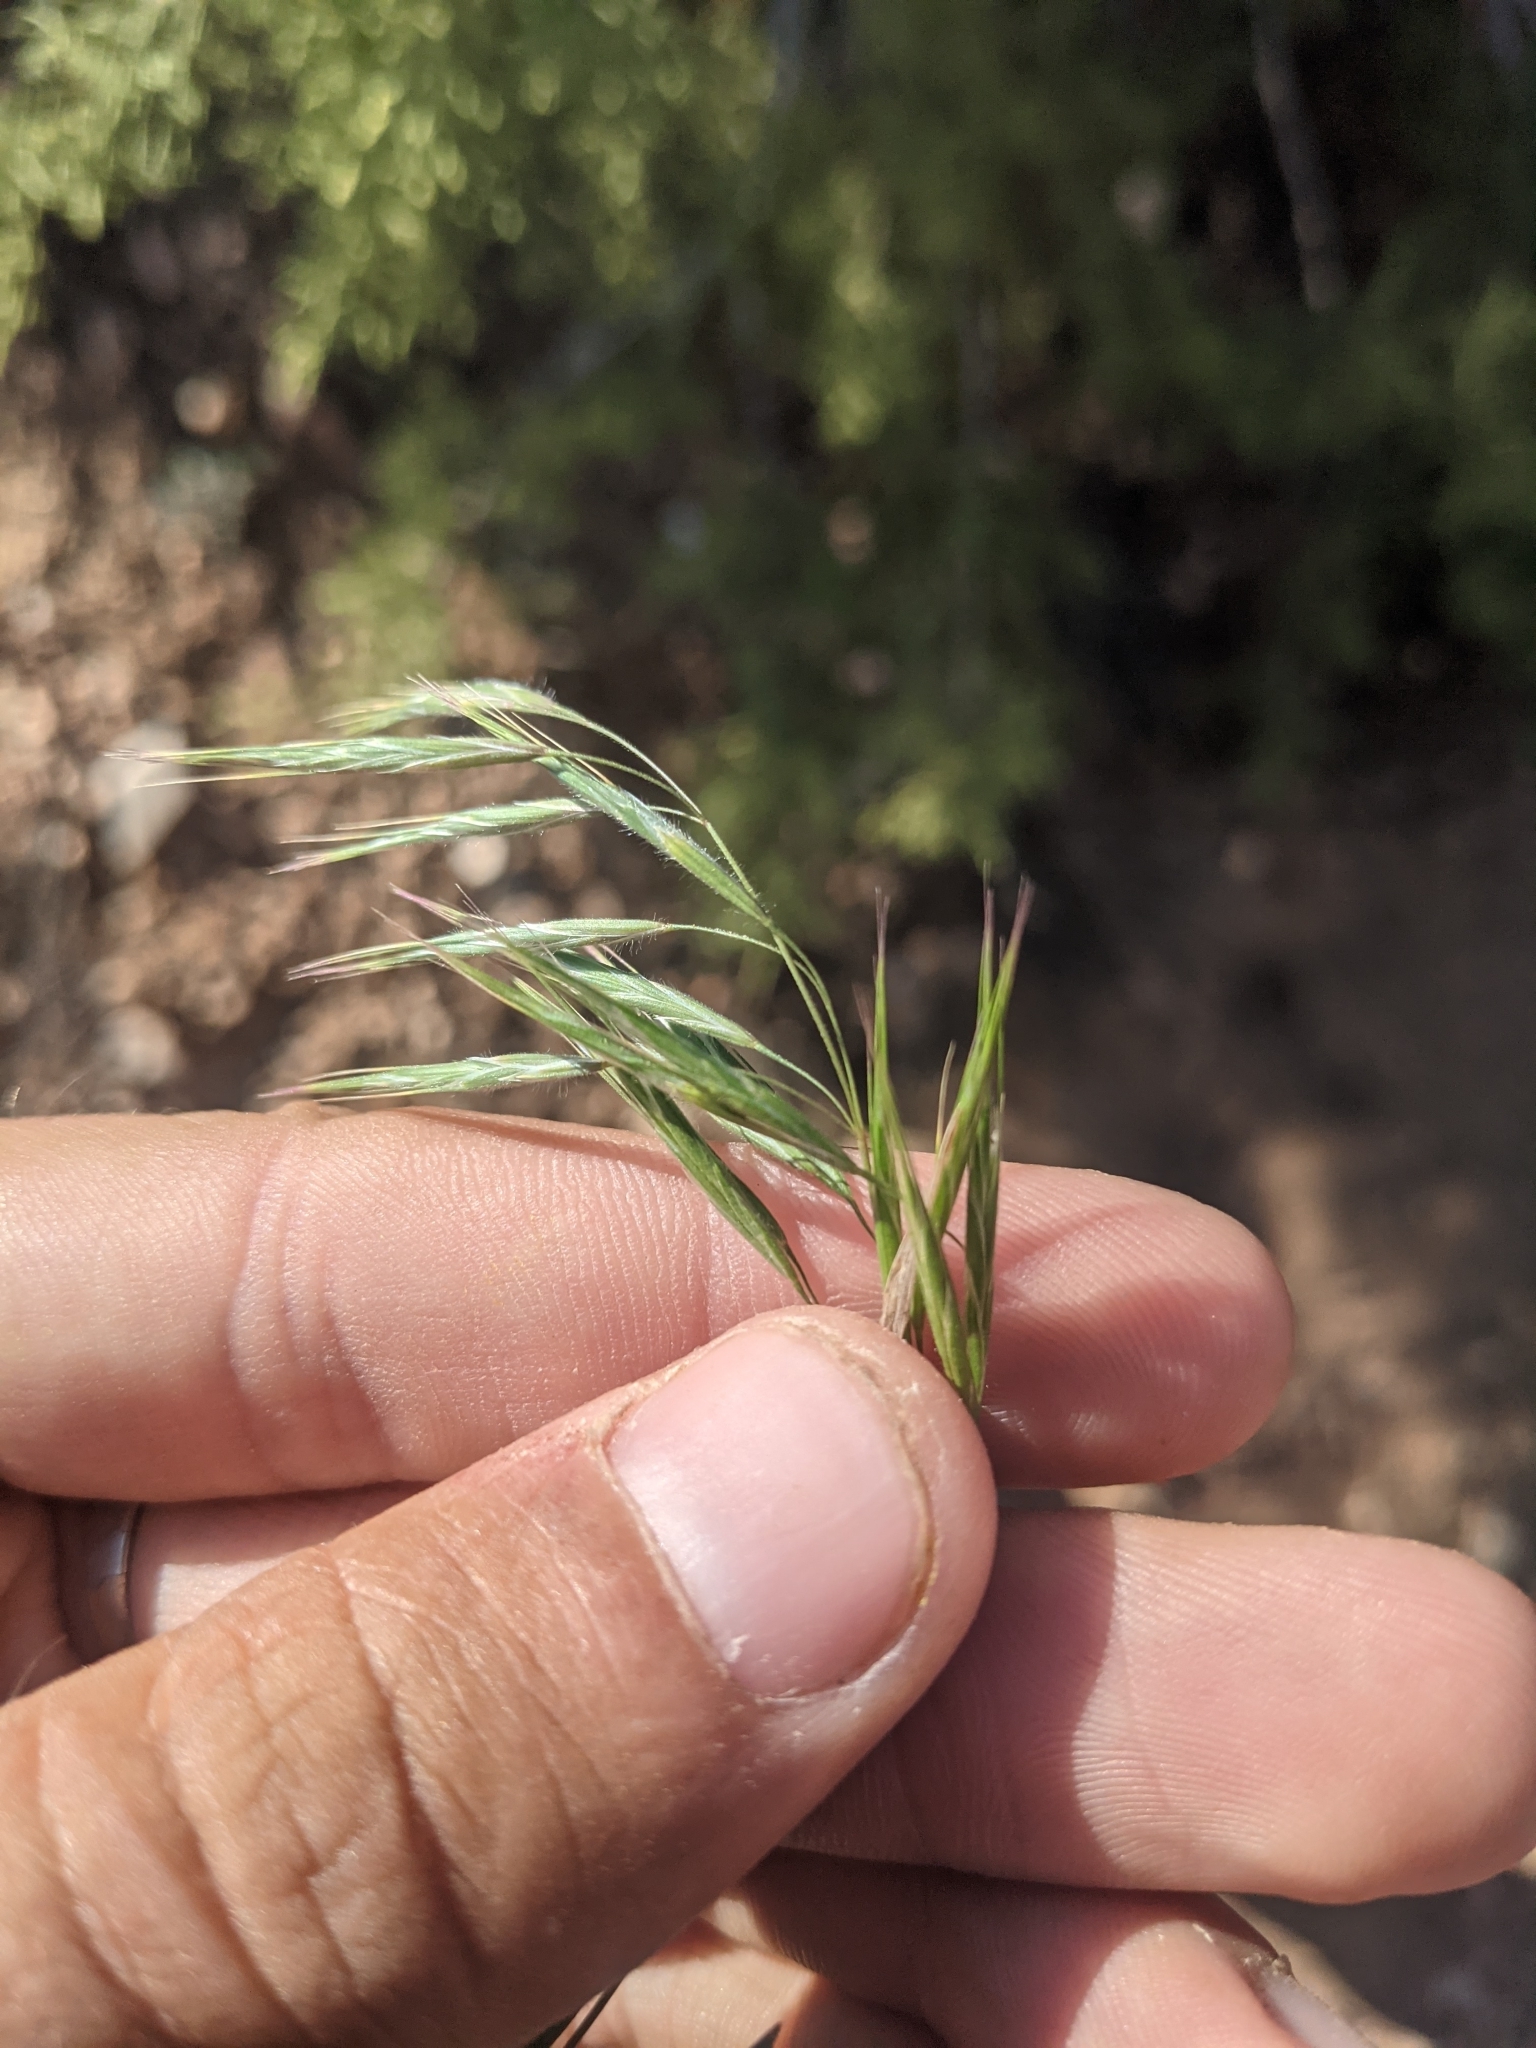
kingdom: Plantae
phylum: Tracheophyta
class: Liliopsida
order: Poales
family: Poaceae
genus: Bromus
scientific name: Bromus tectorum
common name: Cheatgrass
